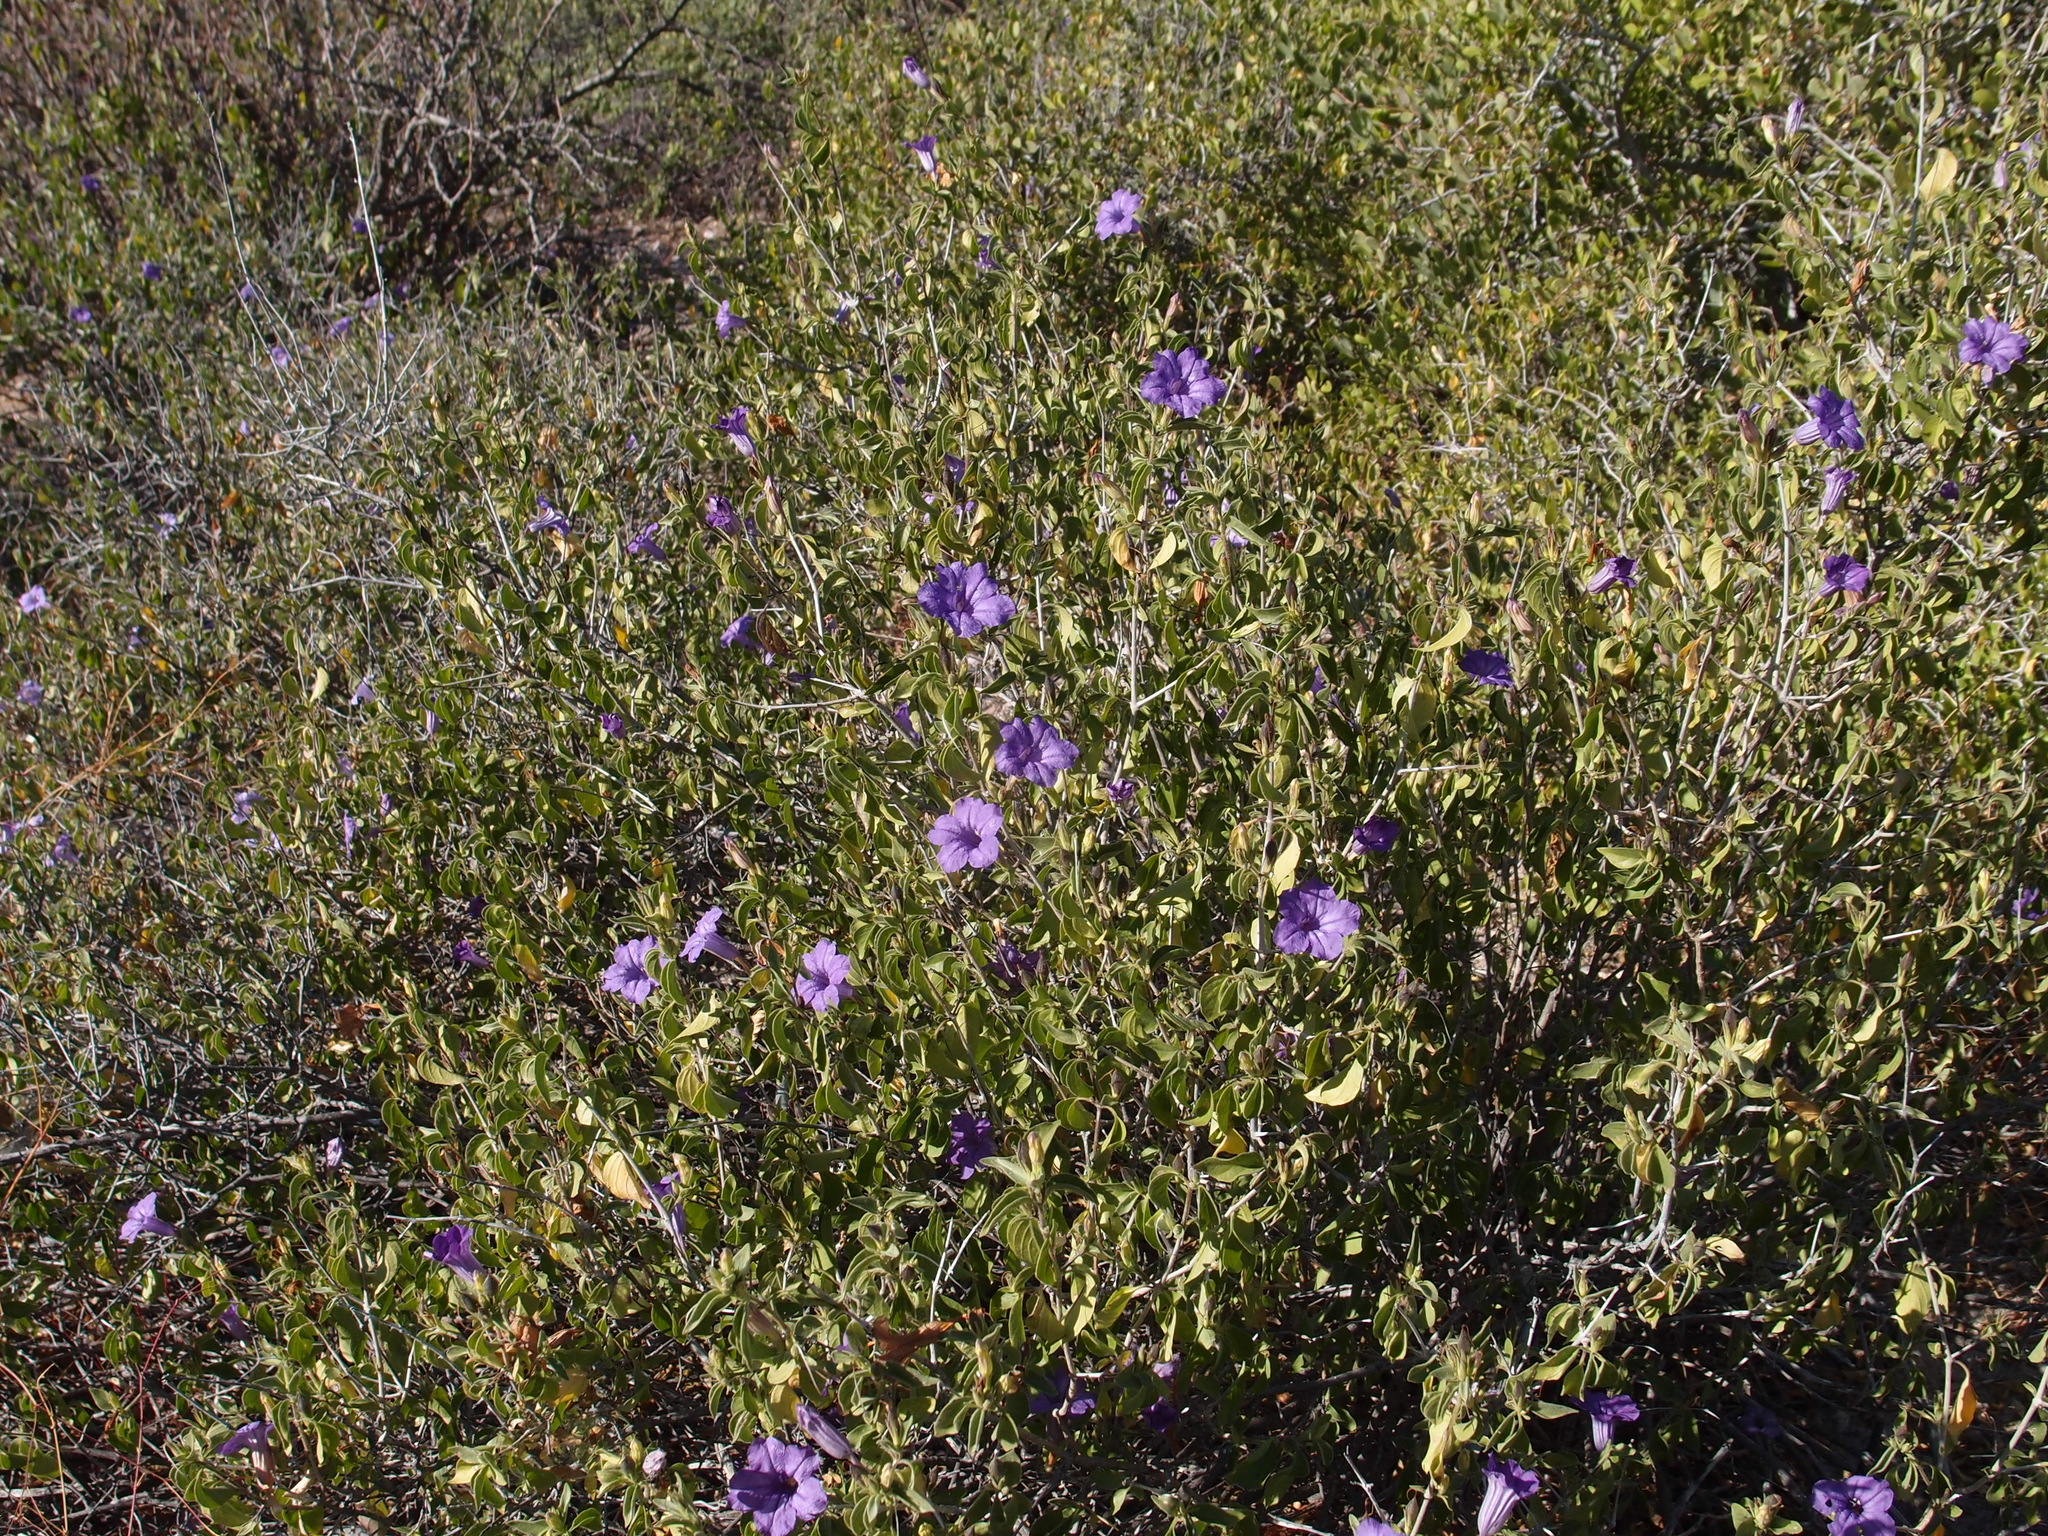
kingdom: Plantae
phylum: Tracheophyta
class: Magnoliopsida
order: Lamiales
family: Acanthaceae
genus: Ruellia
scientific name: Ruellia californica
